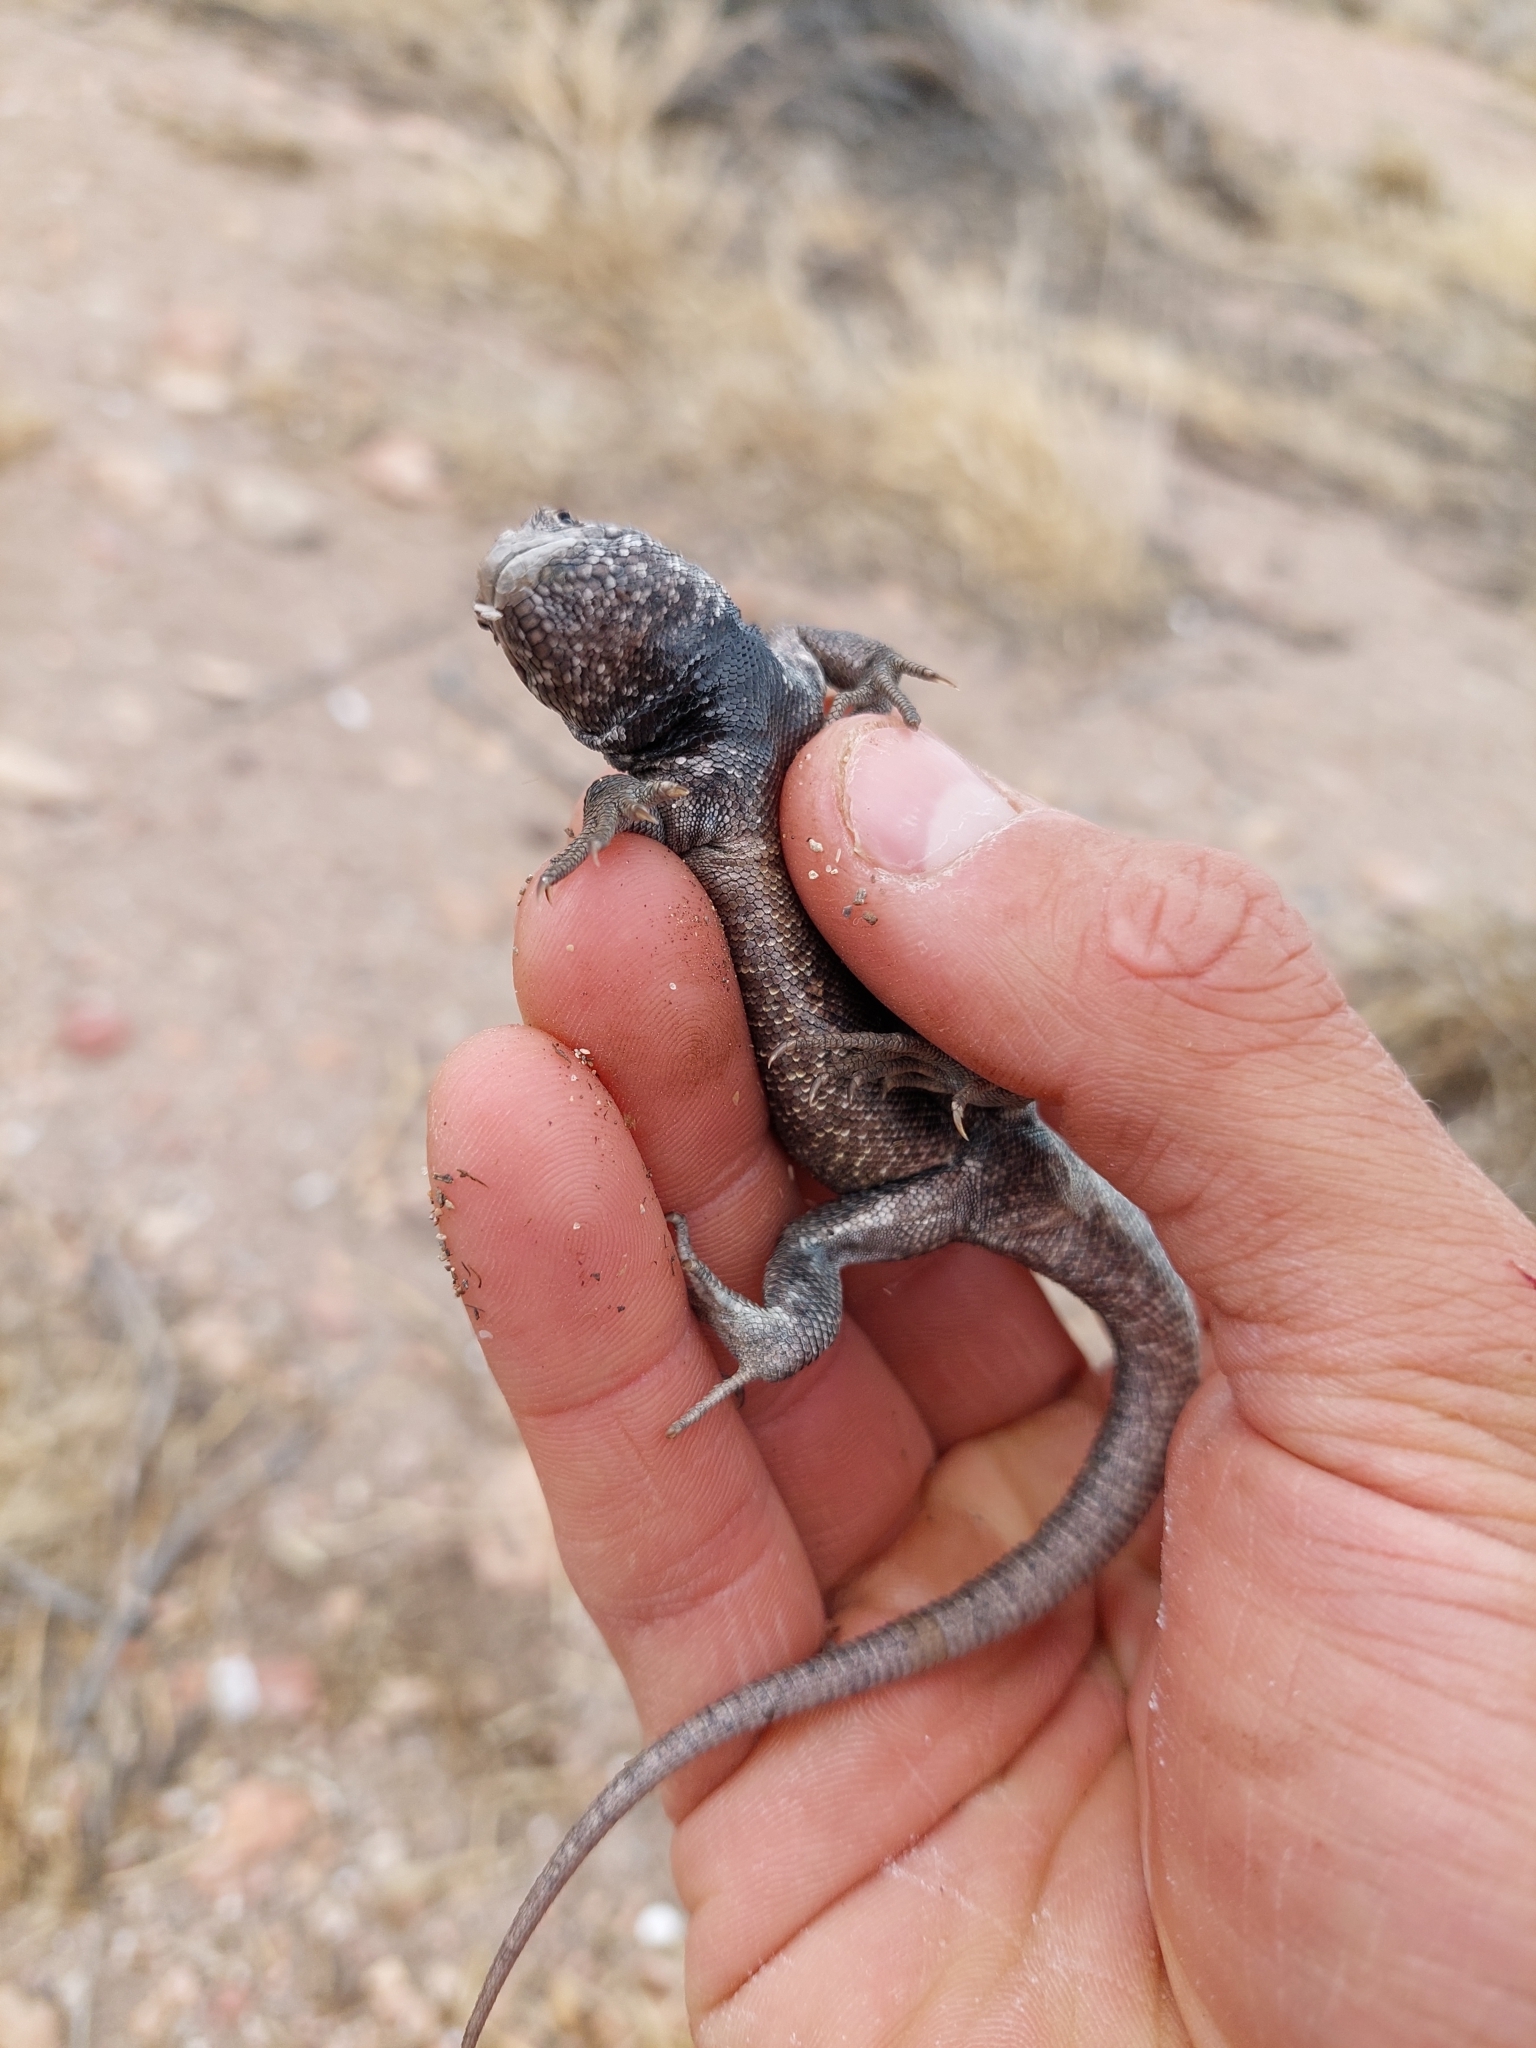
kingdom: Animalia
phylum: Chordata
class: Squamata
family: Liolaemidae
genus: Liolaemus
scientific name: Liolaemus fitzingerii
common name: Fitzinger's tree iguana
